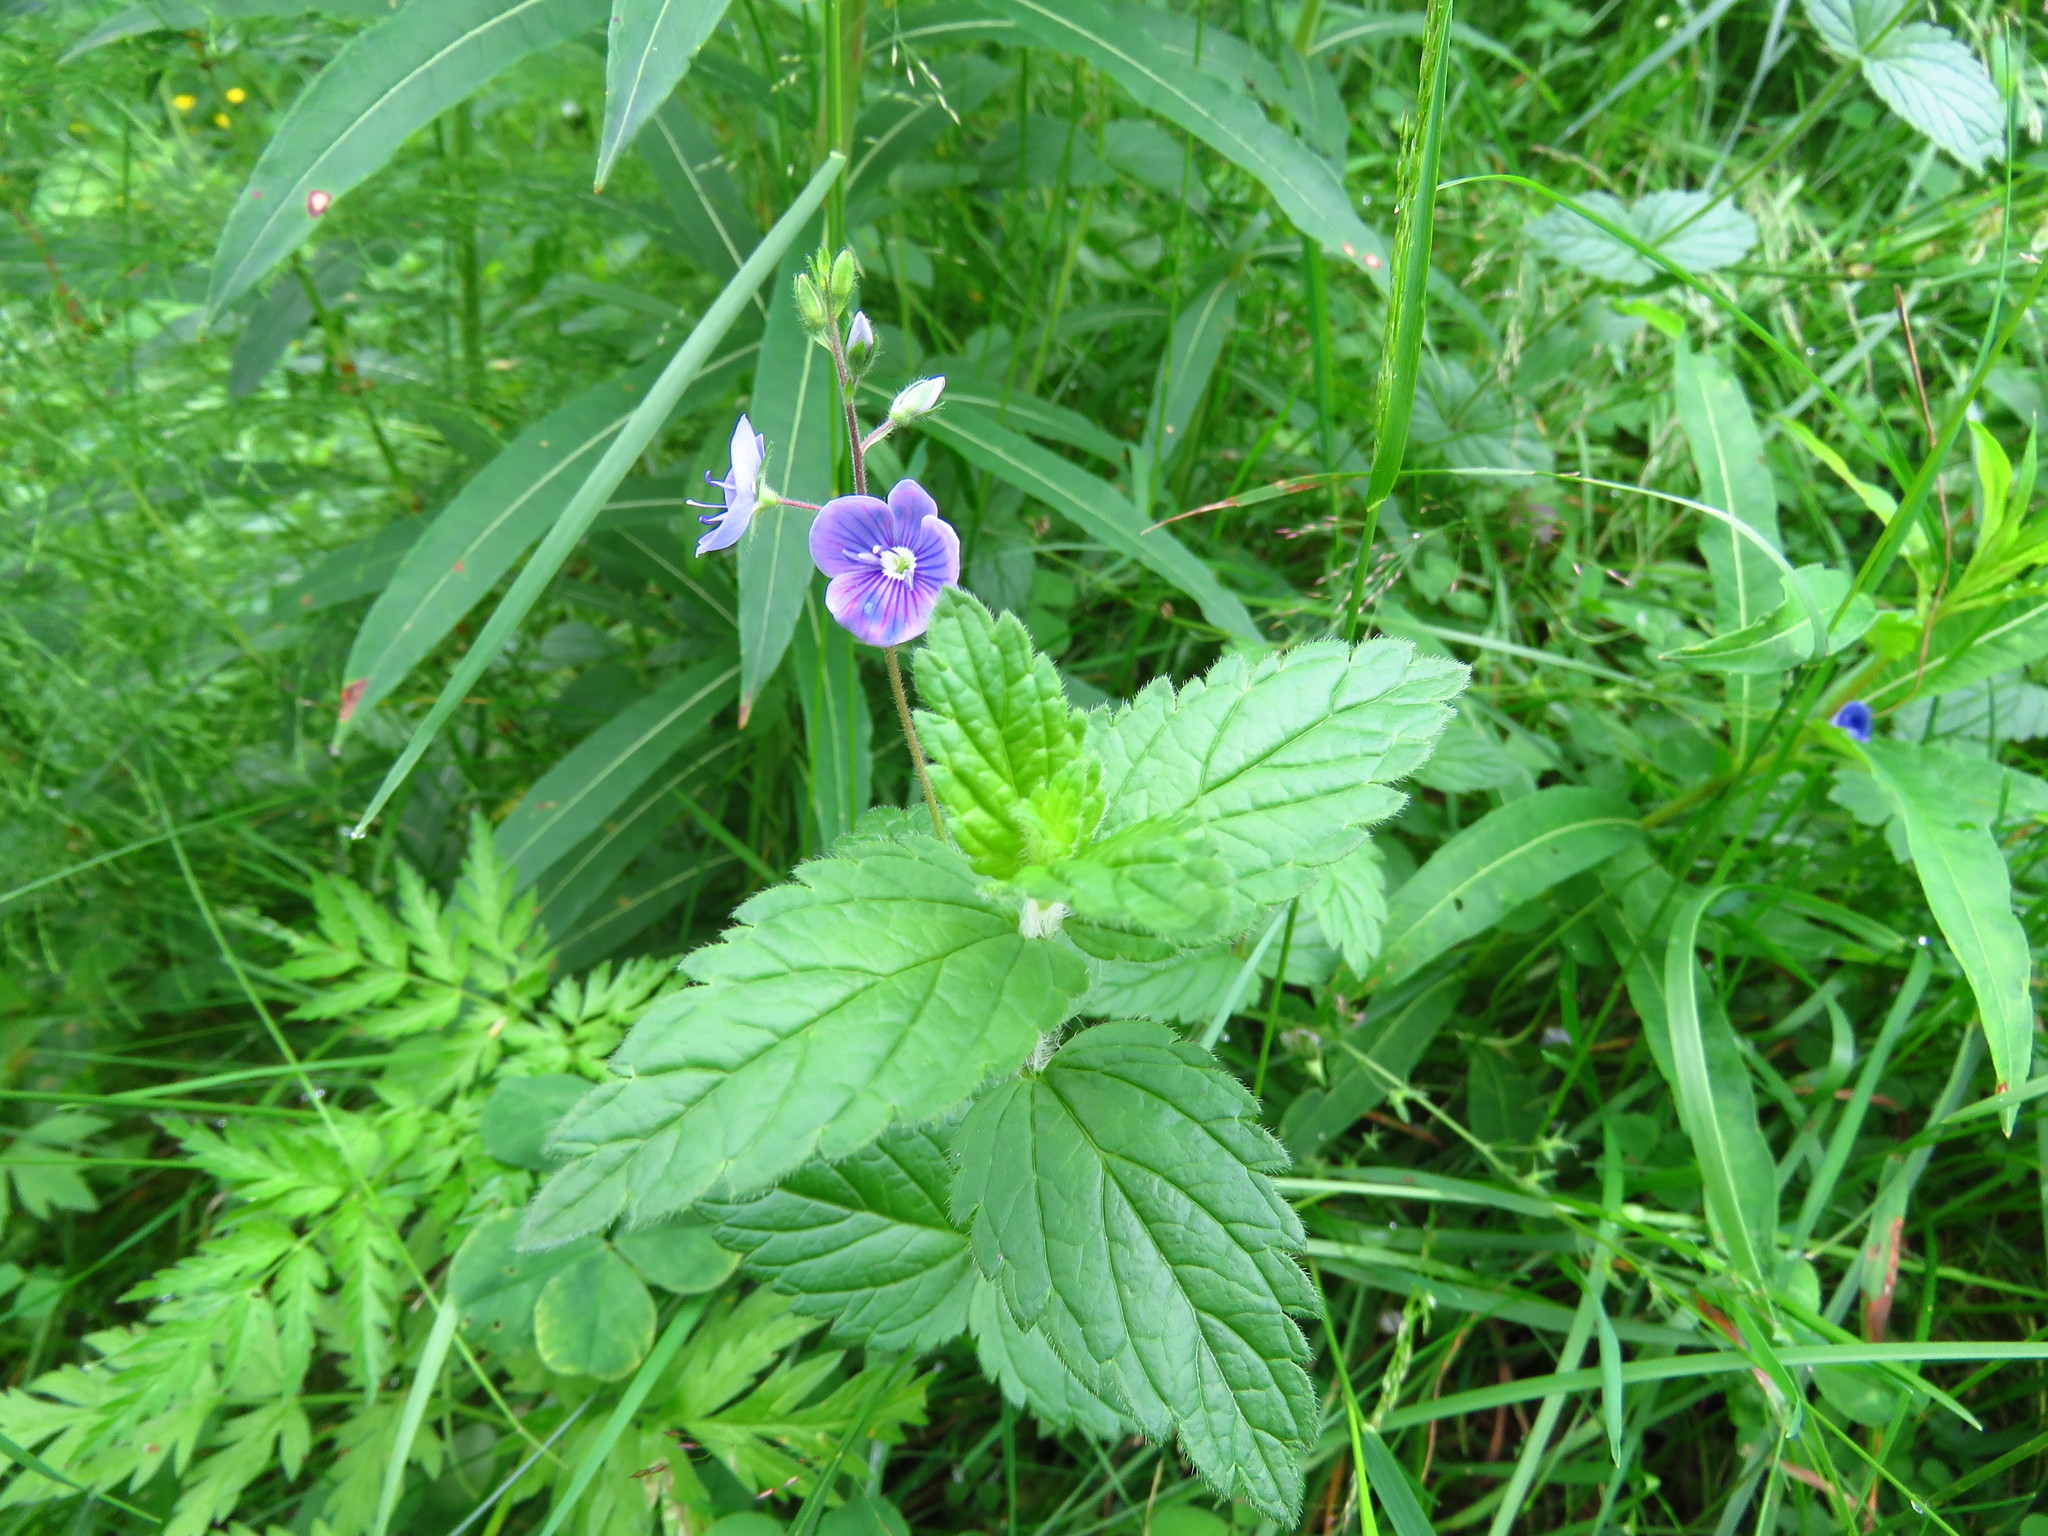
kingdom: Plantae
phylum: Tracheophyta
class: Magnoliopsida
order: Lamiales
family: Plantaginaceae
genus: Veronica
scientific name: Veronica chamaedrys
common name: Germander speedwell
